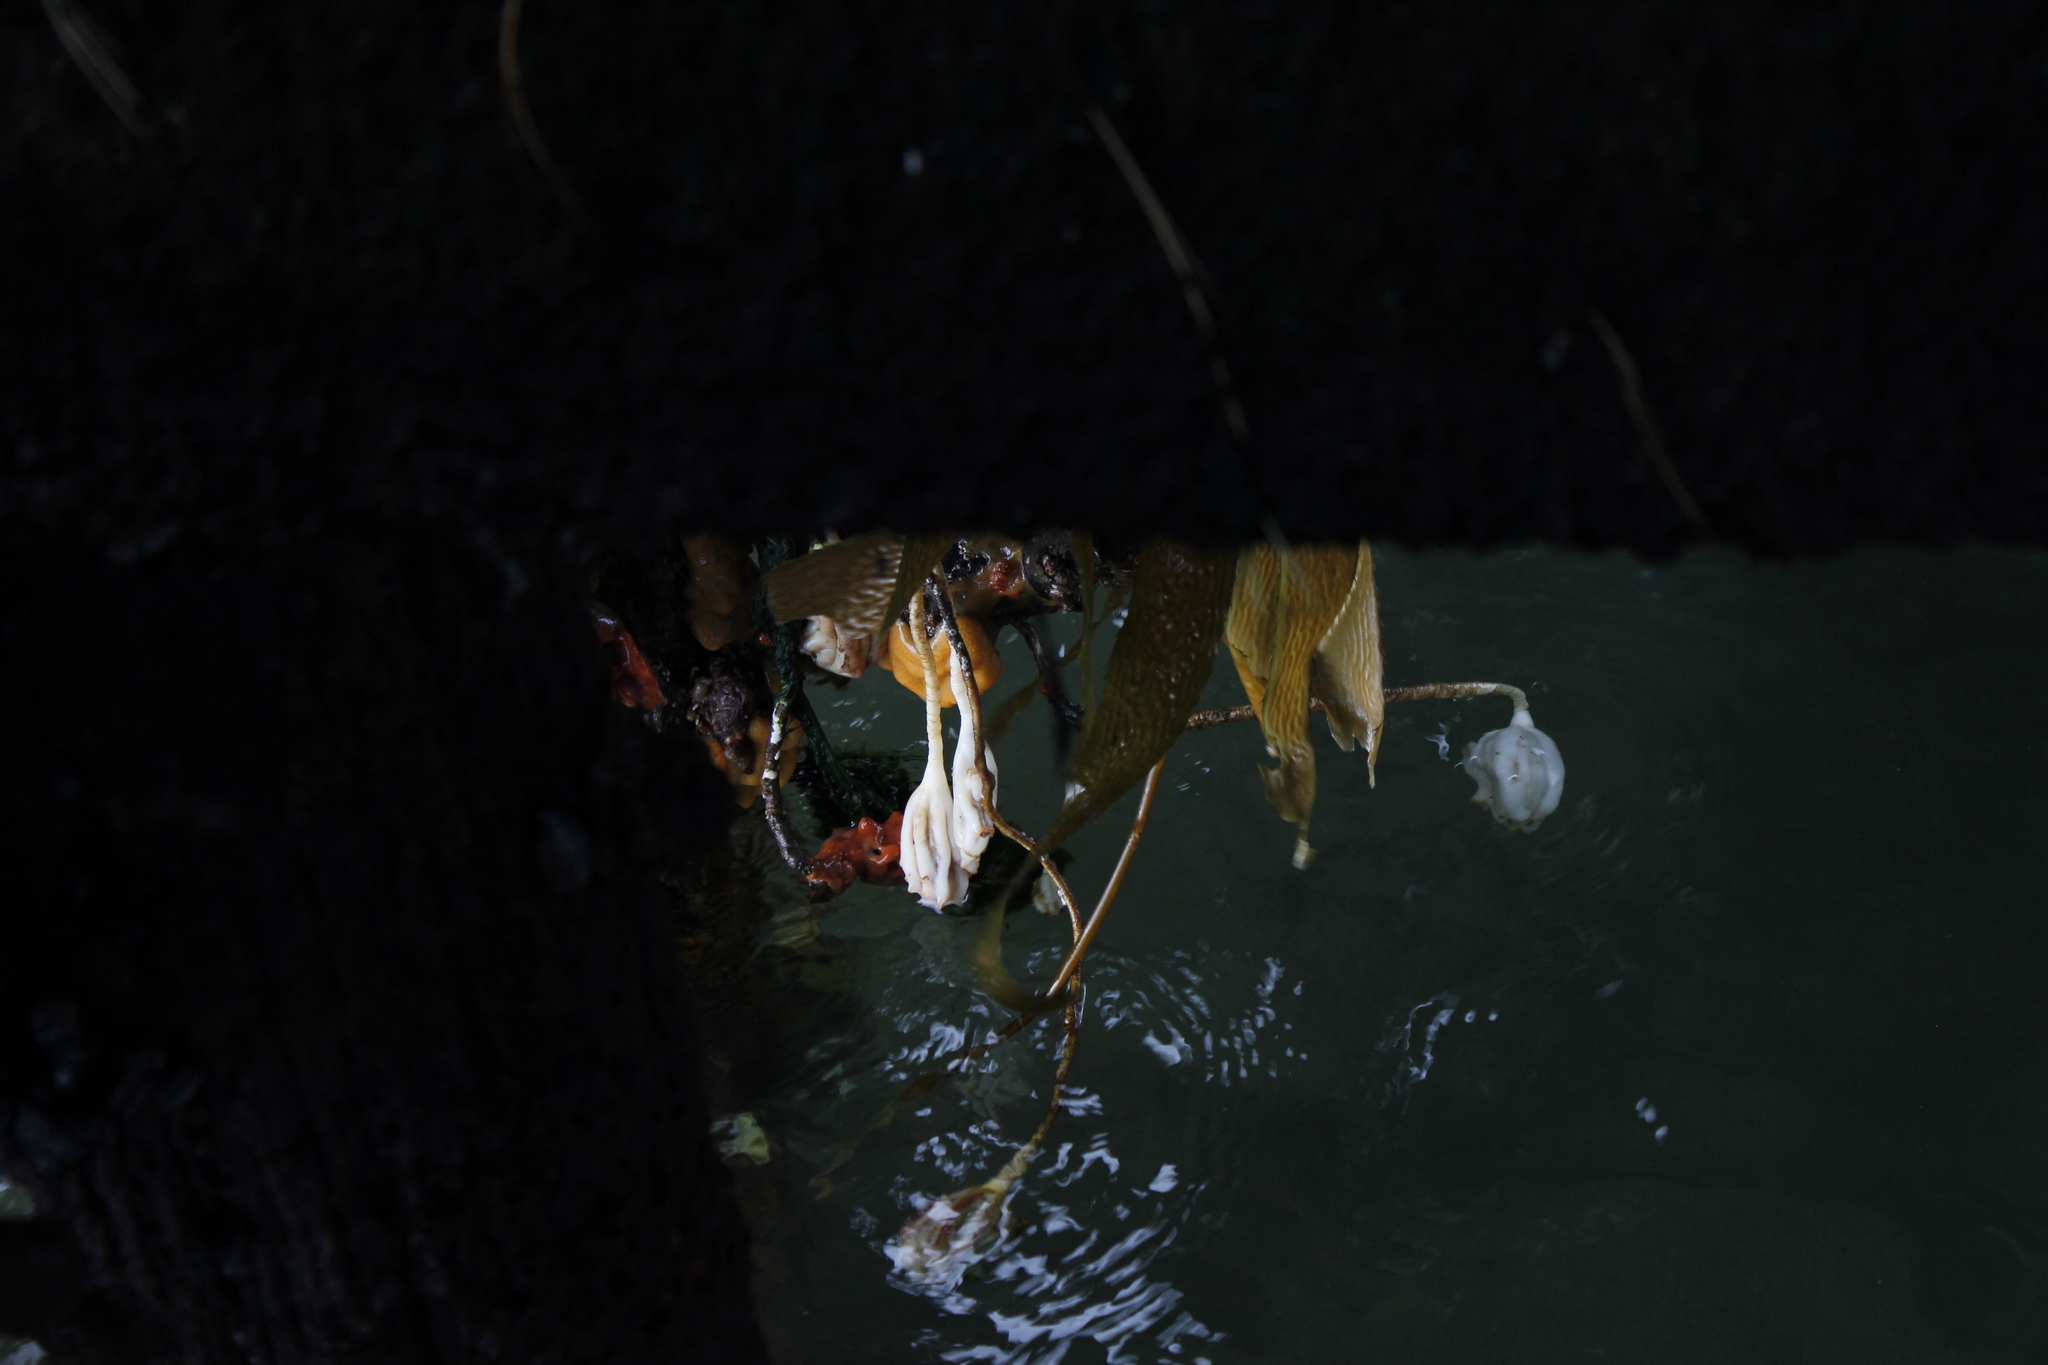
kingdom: Animalia
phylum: Chordata
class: Ascidiacea
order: Stolidobranchia
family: Pyuridae
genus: Pyura
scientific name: Pyura pachydermatina
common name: Sea tulip
